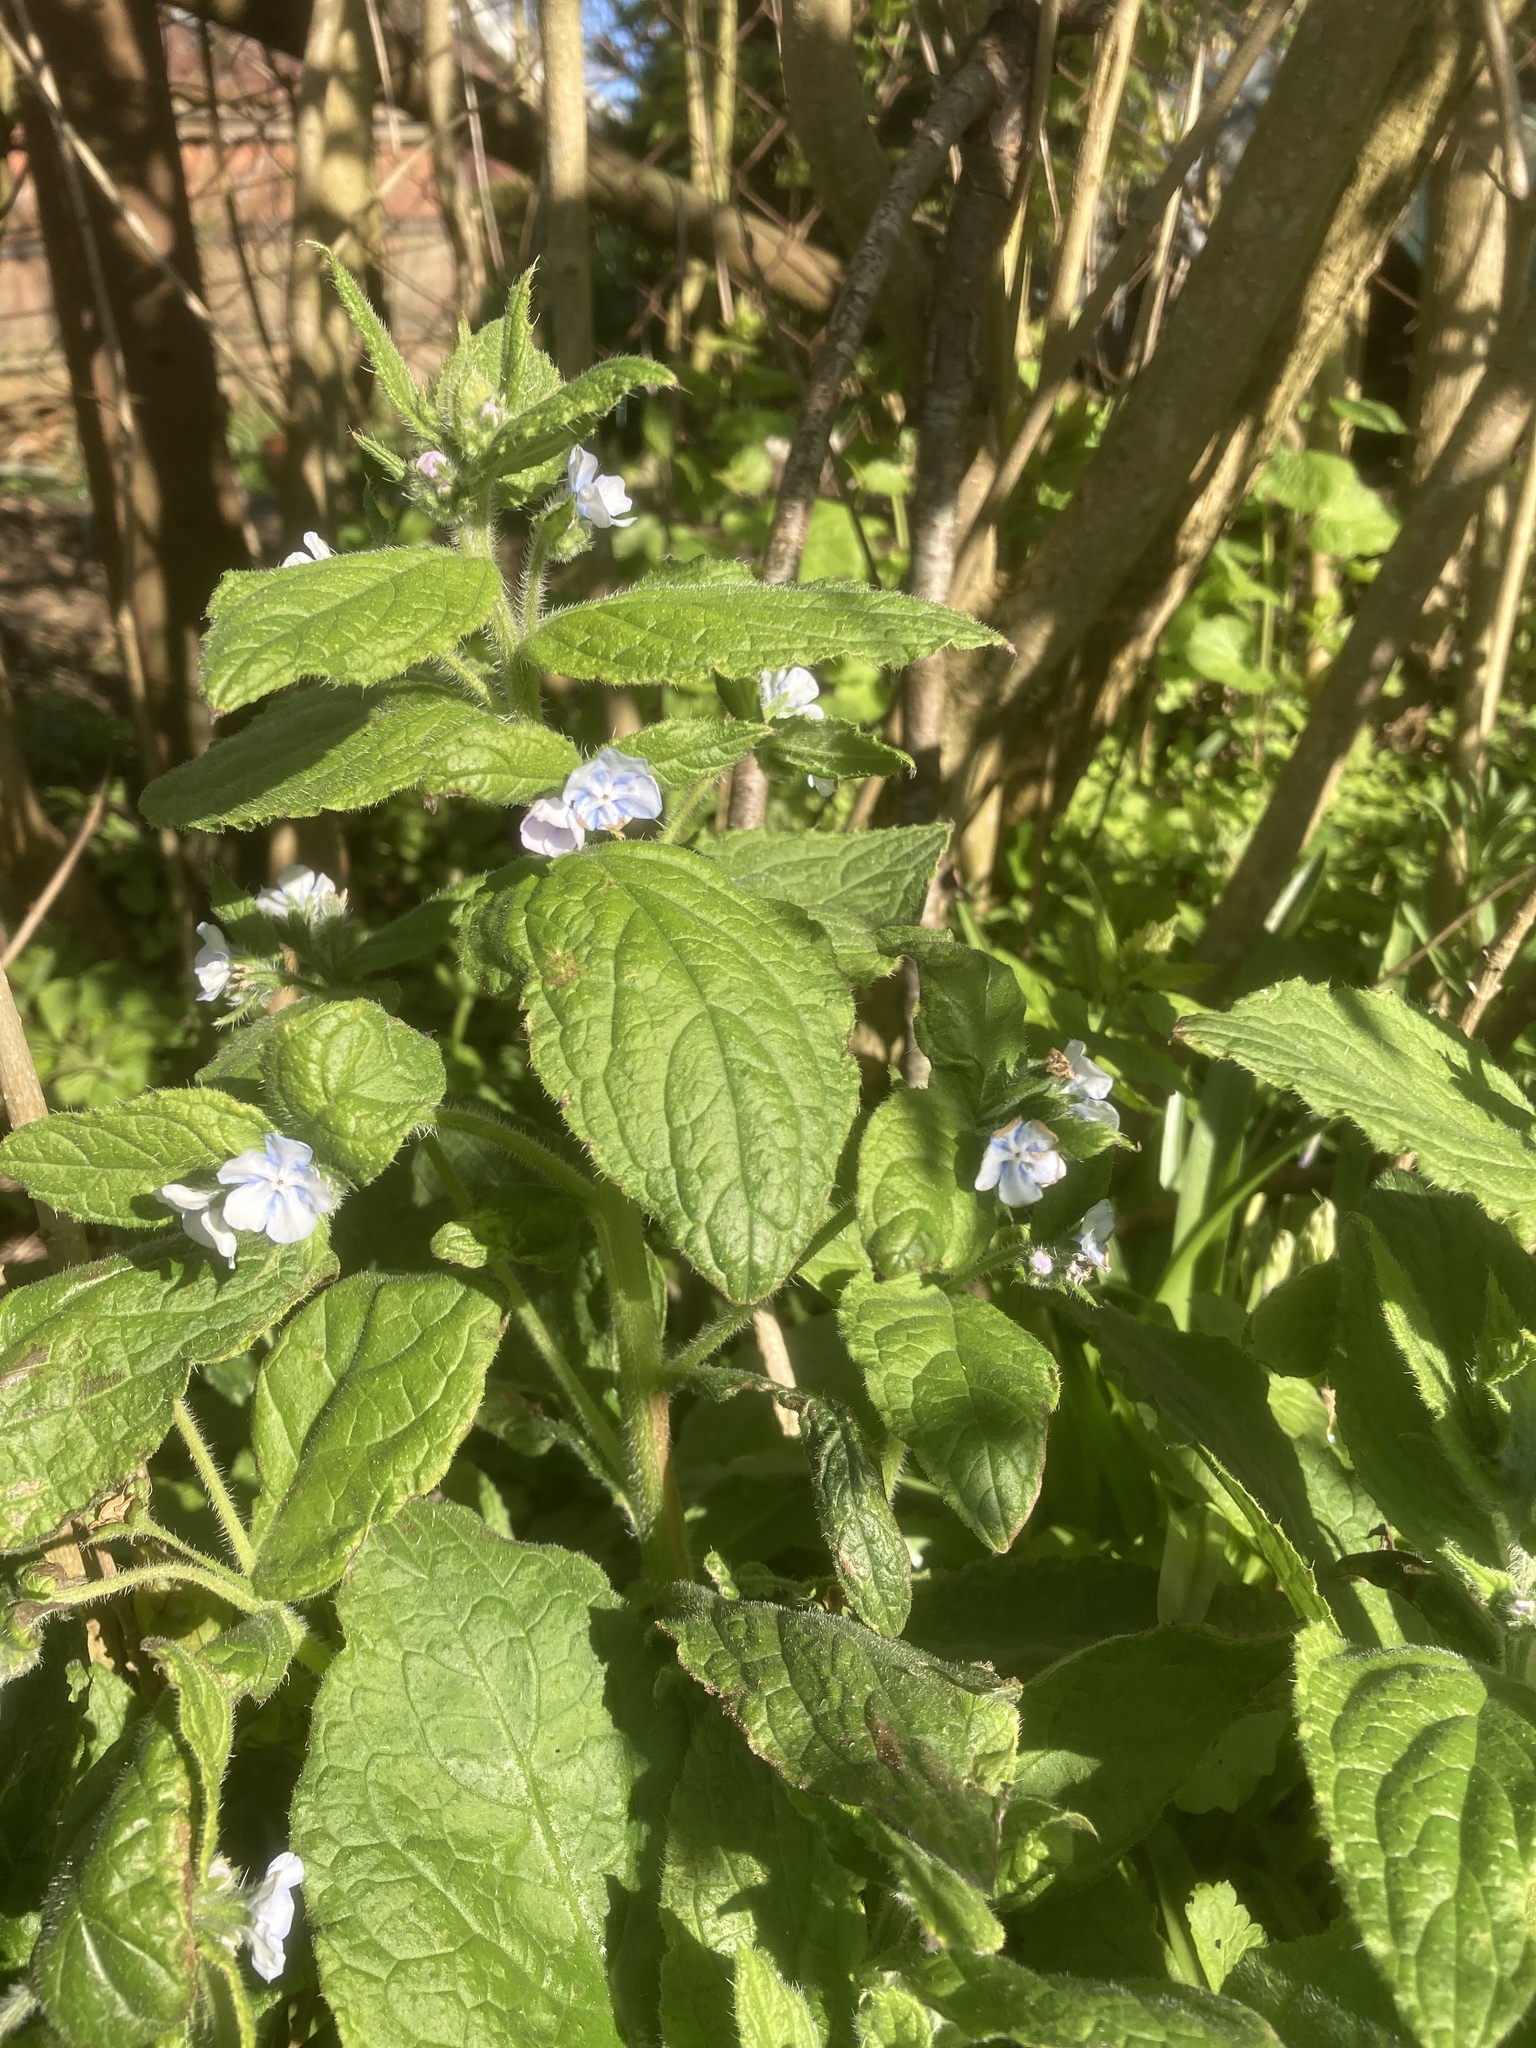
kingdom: Plantae
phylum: Tracheophyta
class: Magnoliopsida
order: Boraginales
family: Boraginaceae
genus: Pentaglottis
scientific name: Pentaglottis sempervirens
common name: Green alkanet
